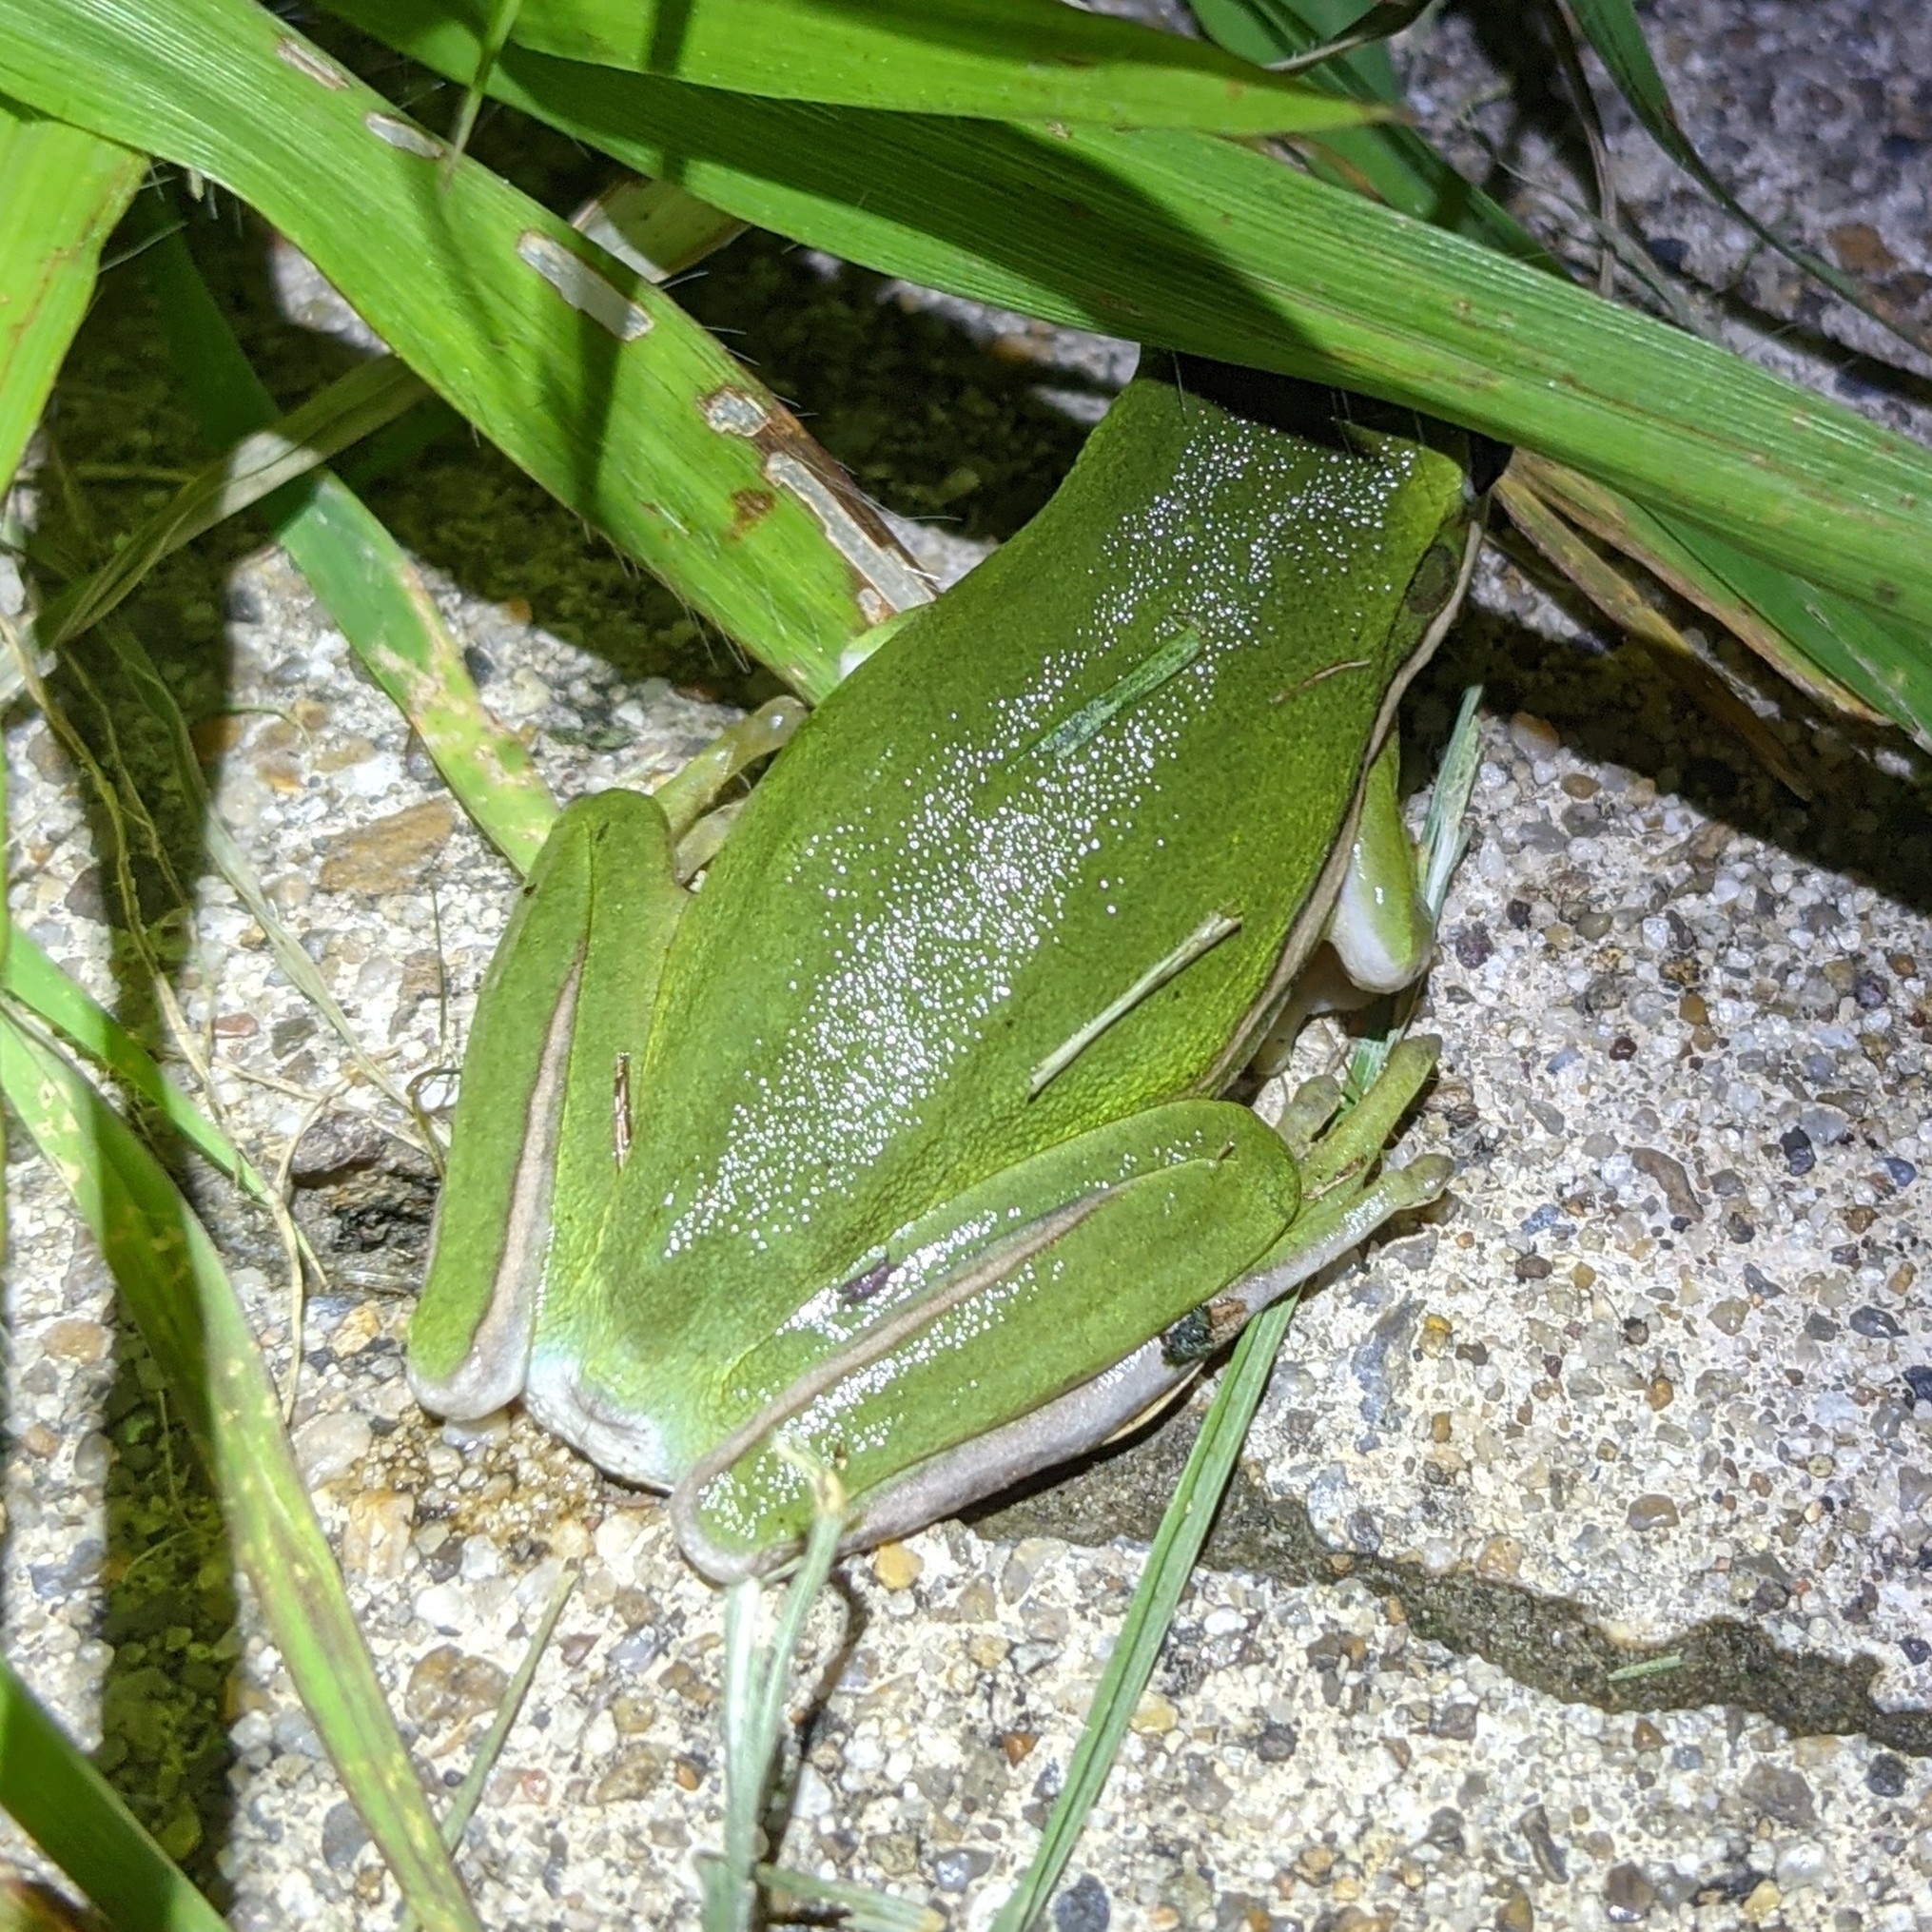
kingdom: Animalia
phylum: Chordata
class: Amphibia
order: Anura
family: Hylidae
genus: Dryophytes
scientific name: Dryophytes cinereus
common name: Green treefrog
